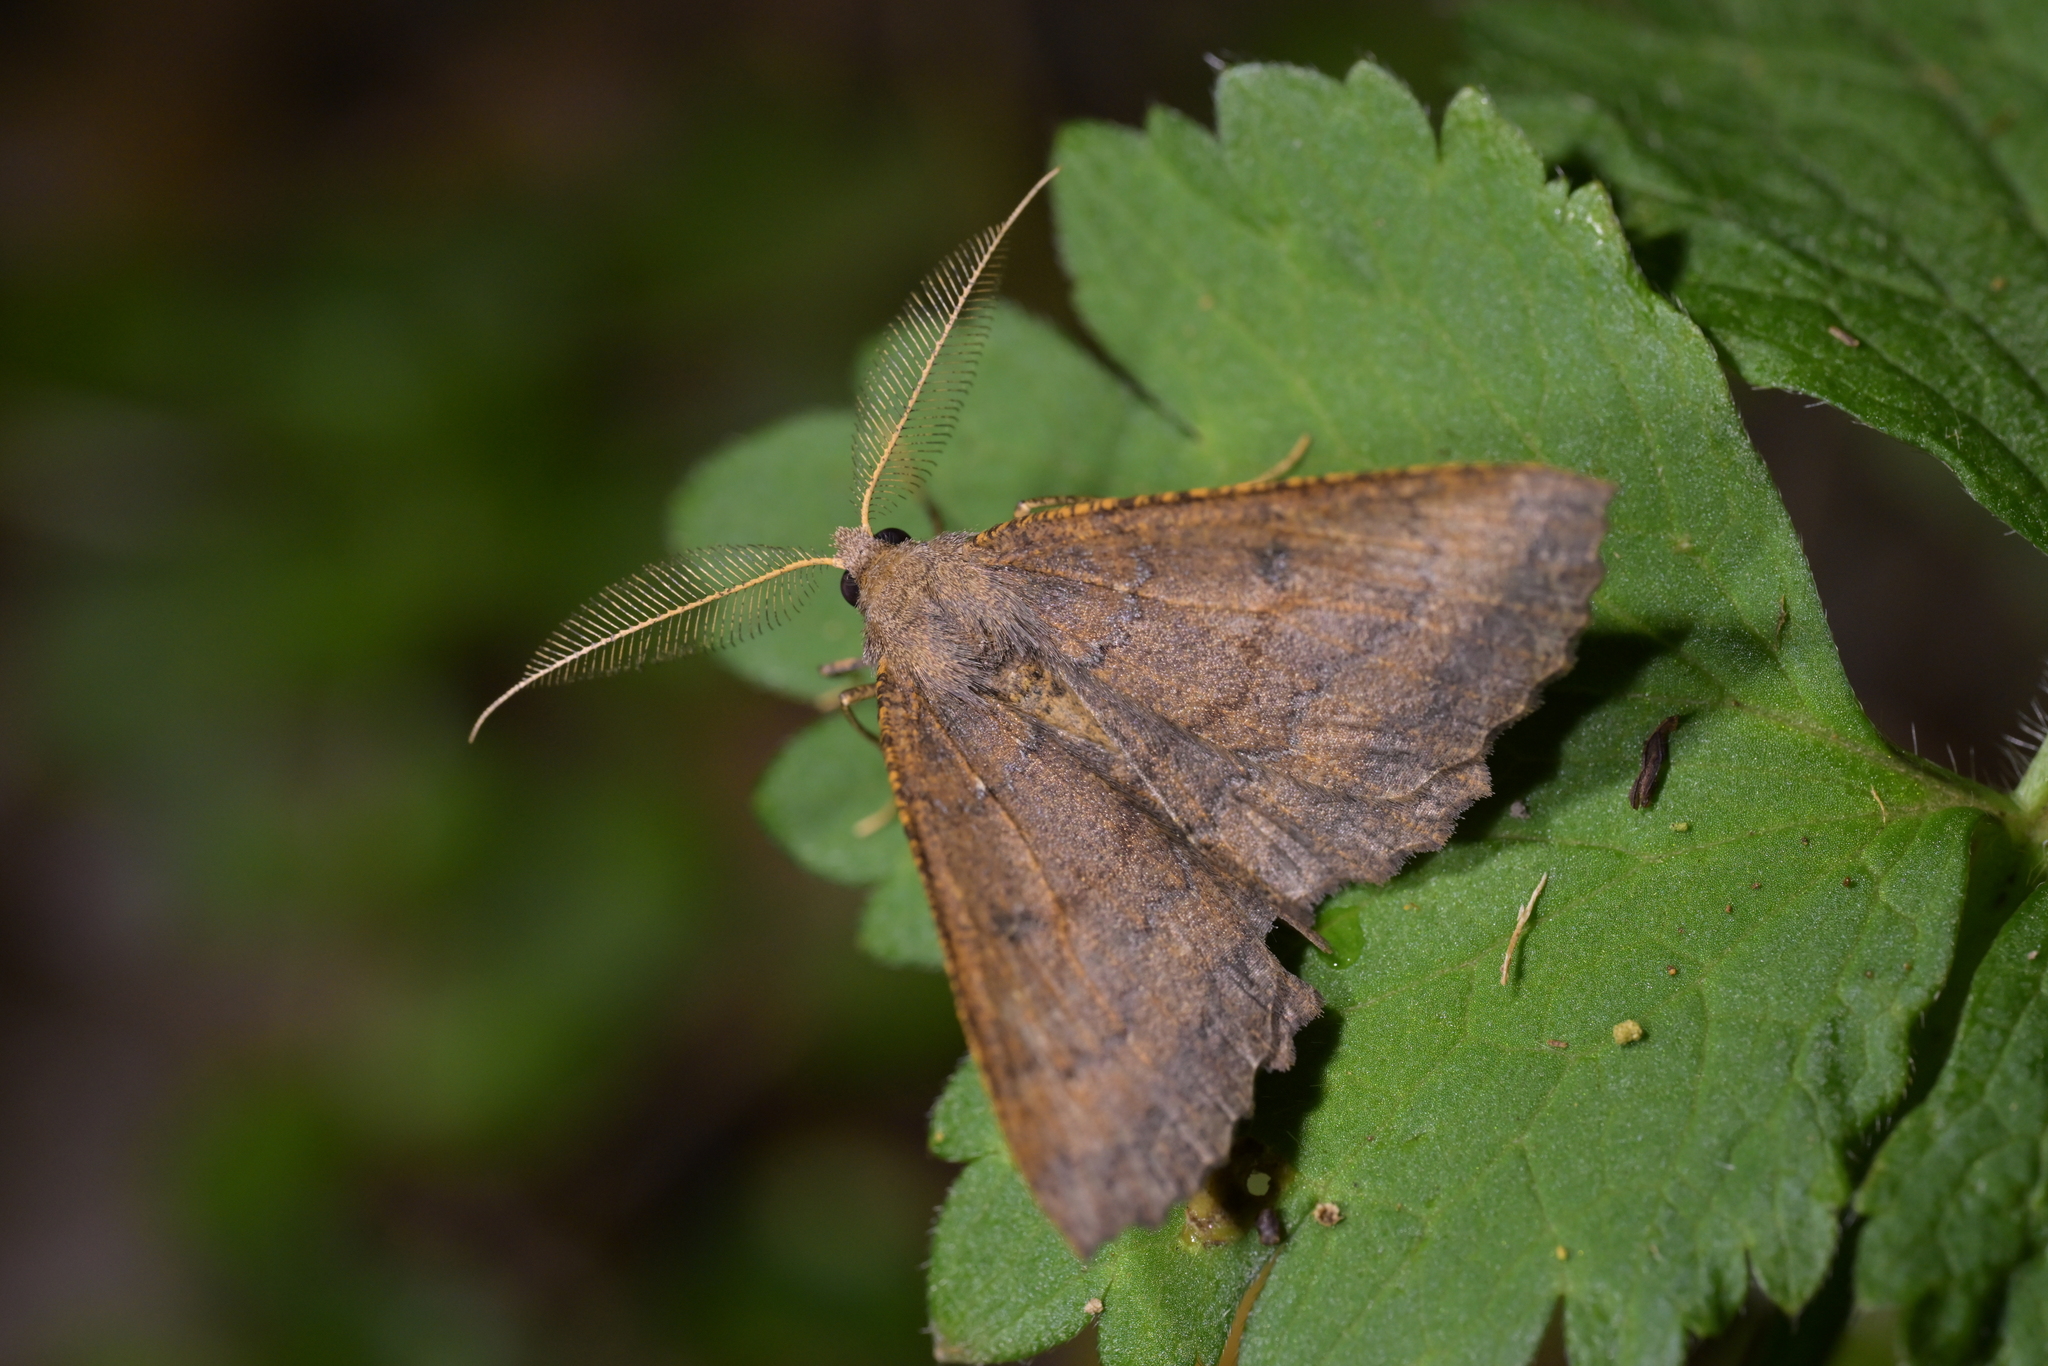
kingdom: Animalia
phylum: Arthropoda
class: Insecta
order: Lepidoptera
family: Geometridae
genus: Cleora
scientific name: Cleora scriptaria
